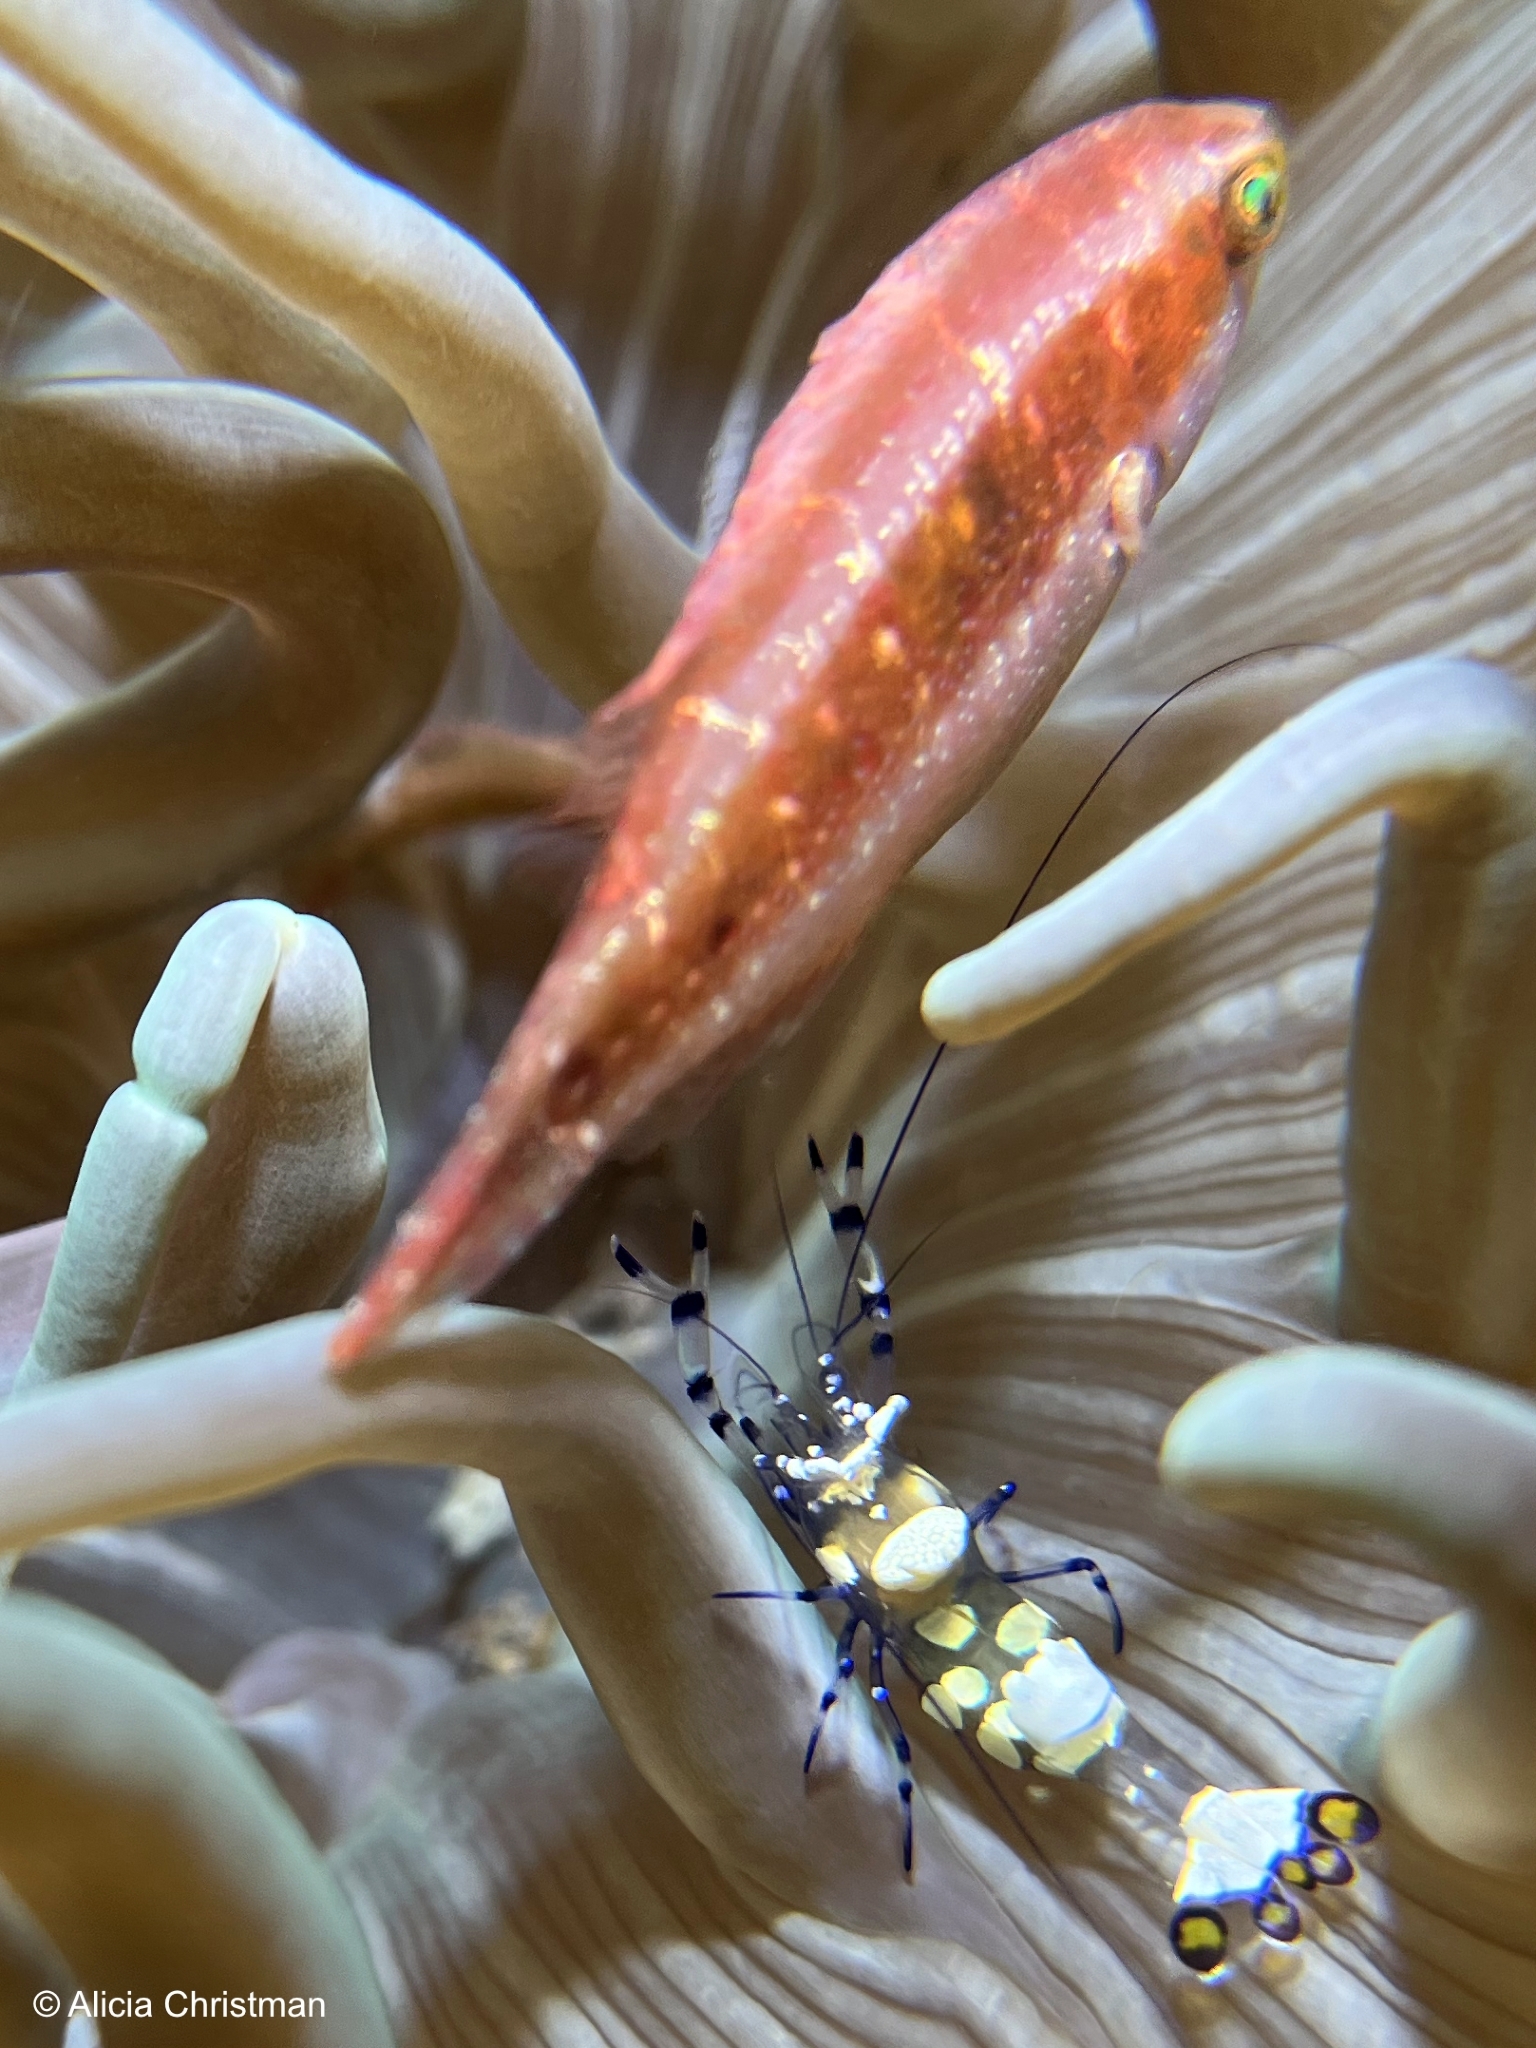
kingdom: Animalia
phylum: Arthropoda
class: Malacostraca
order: Decapoda
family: Palaemonidae
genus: Ancylocaris
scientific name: Ancylocaris brevicarpalis
